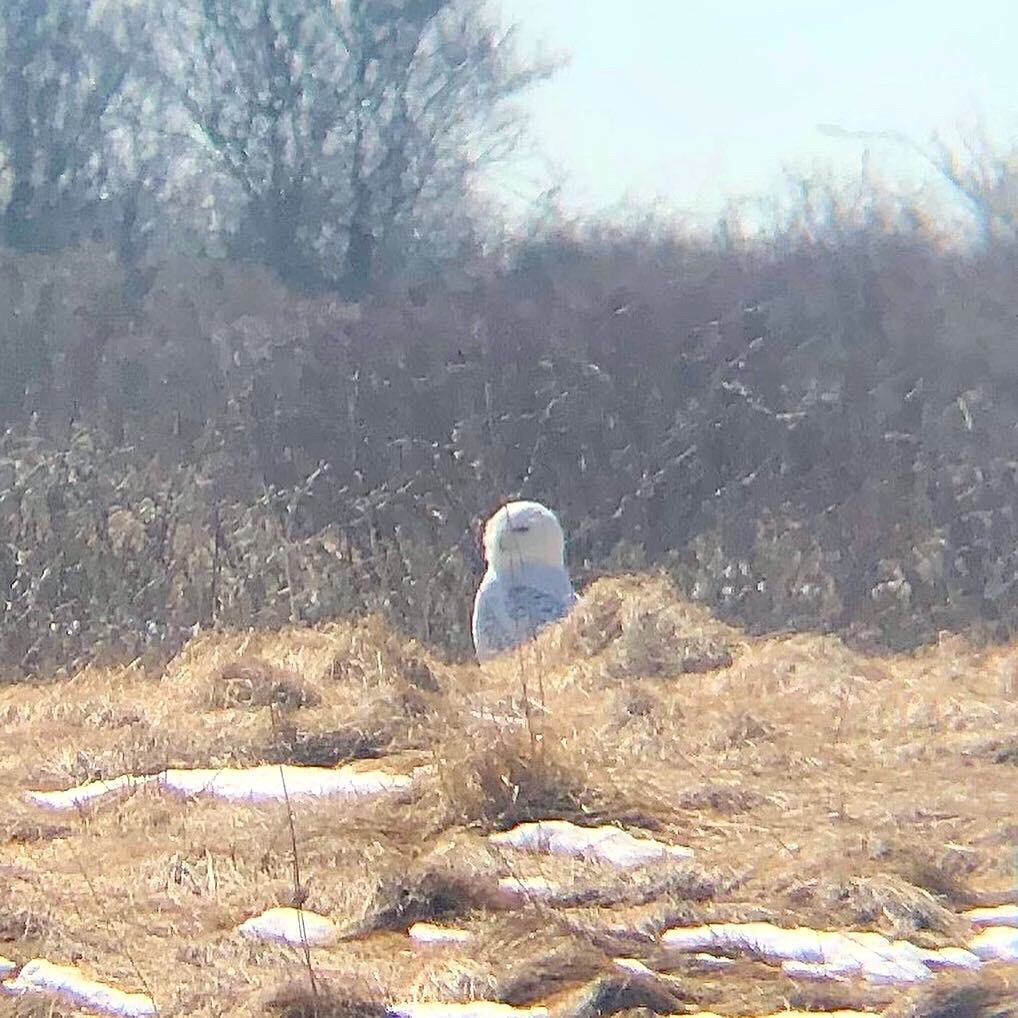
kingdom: Animalia
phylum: Chordata
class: Aves
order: Strigiformes
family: Strigidae
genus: Bubo
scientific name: Bubo scandiacus
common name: Snowy owl
